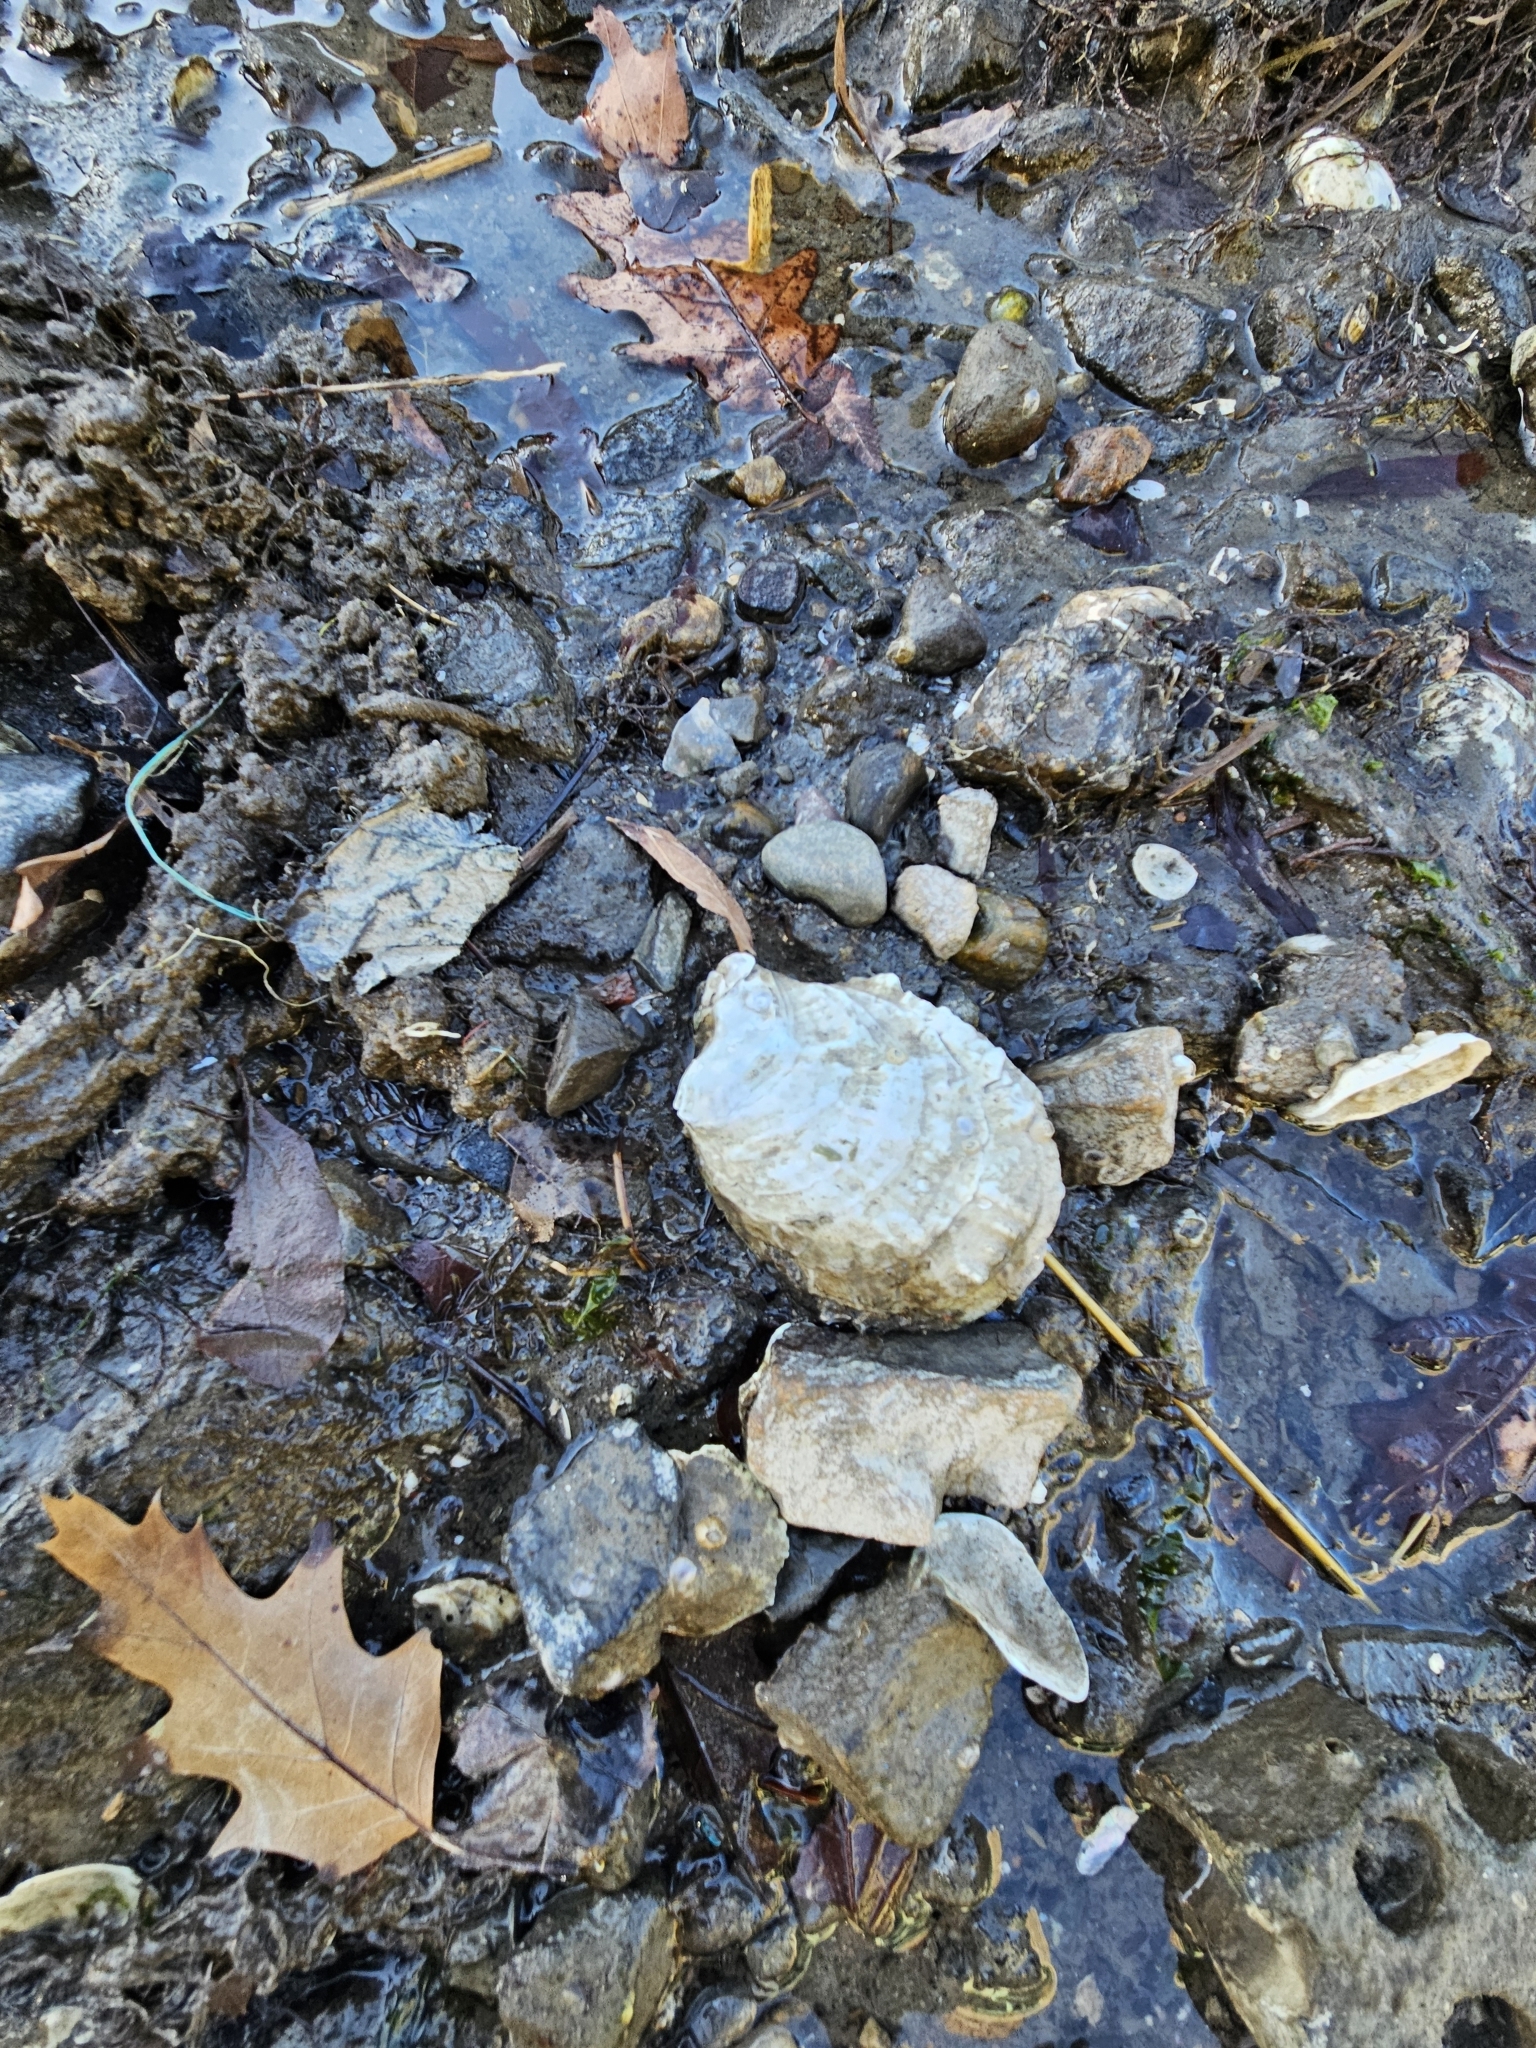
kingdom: Animalia
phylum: Mollusca
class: Bivalvia
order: Ostreida
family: Ostreidae
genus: Crassostrea
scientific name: Crassostrea virginica
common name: American oyster
